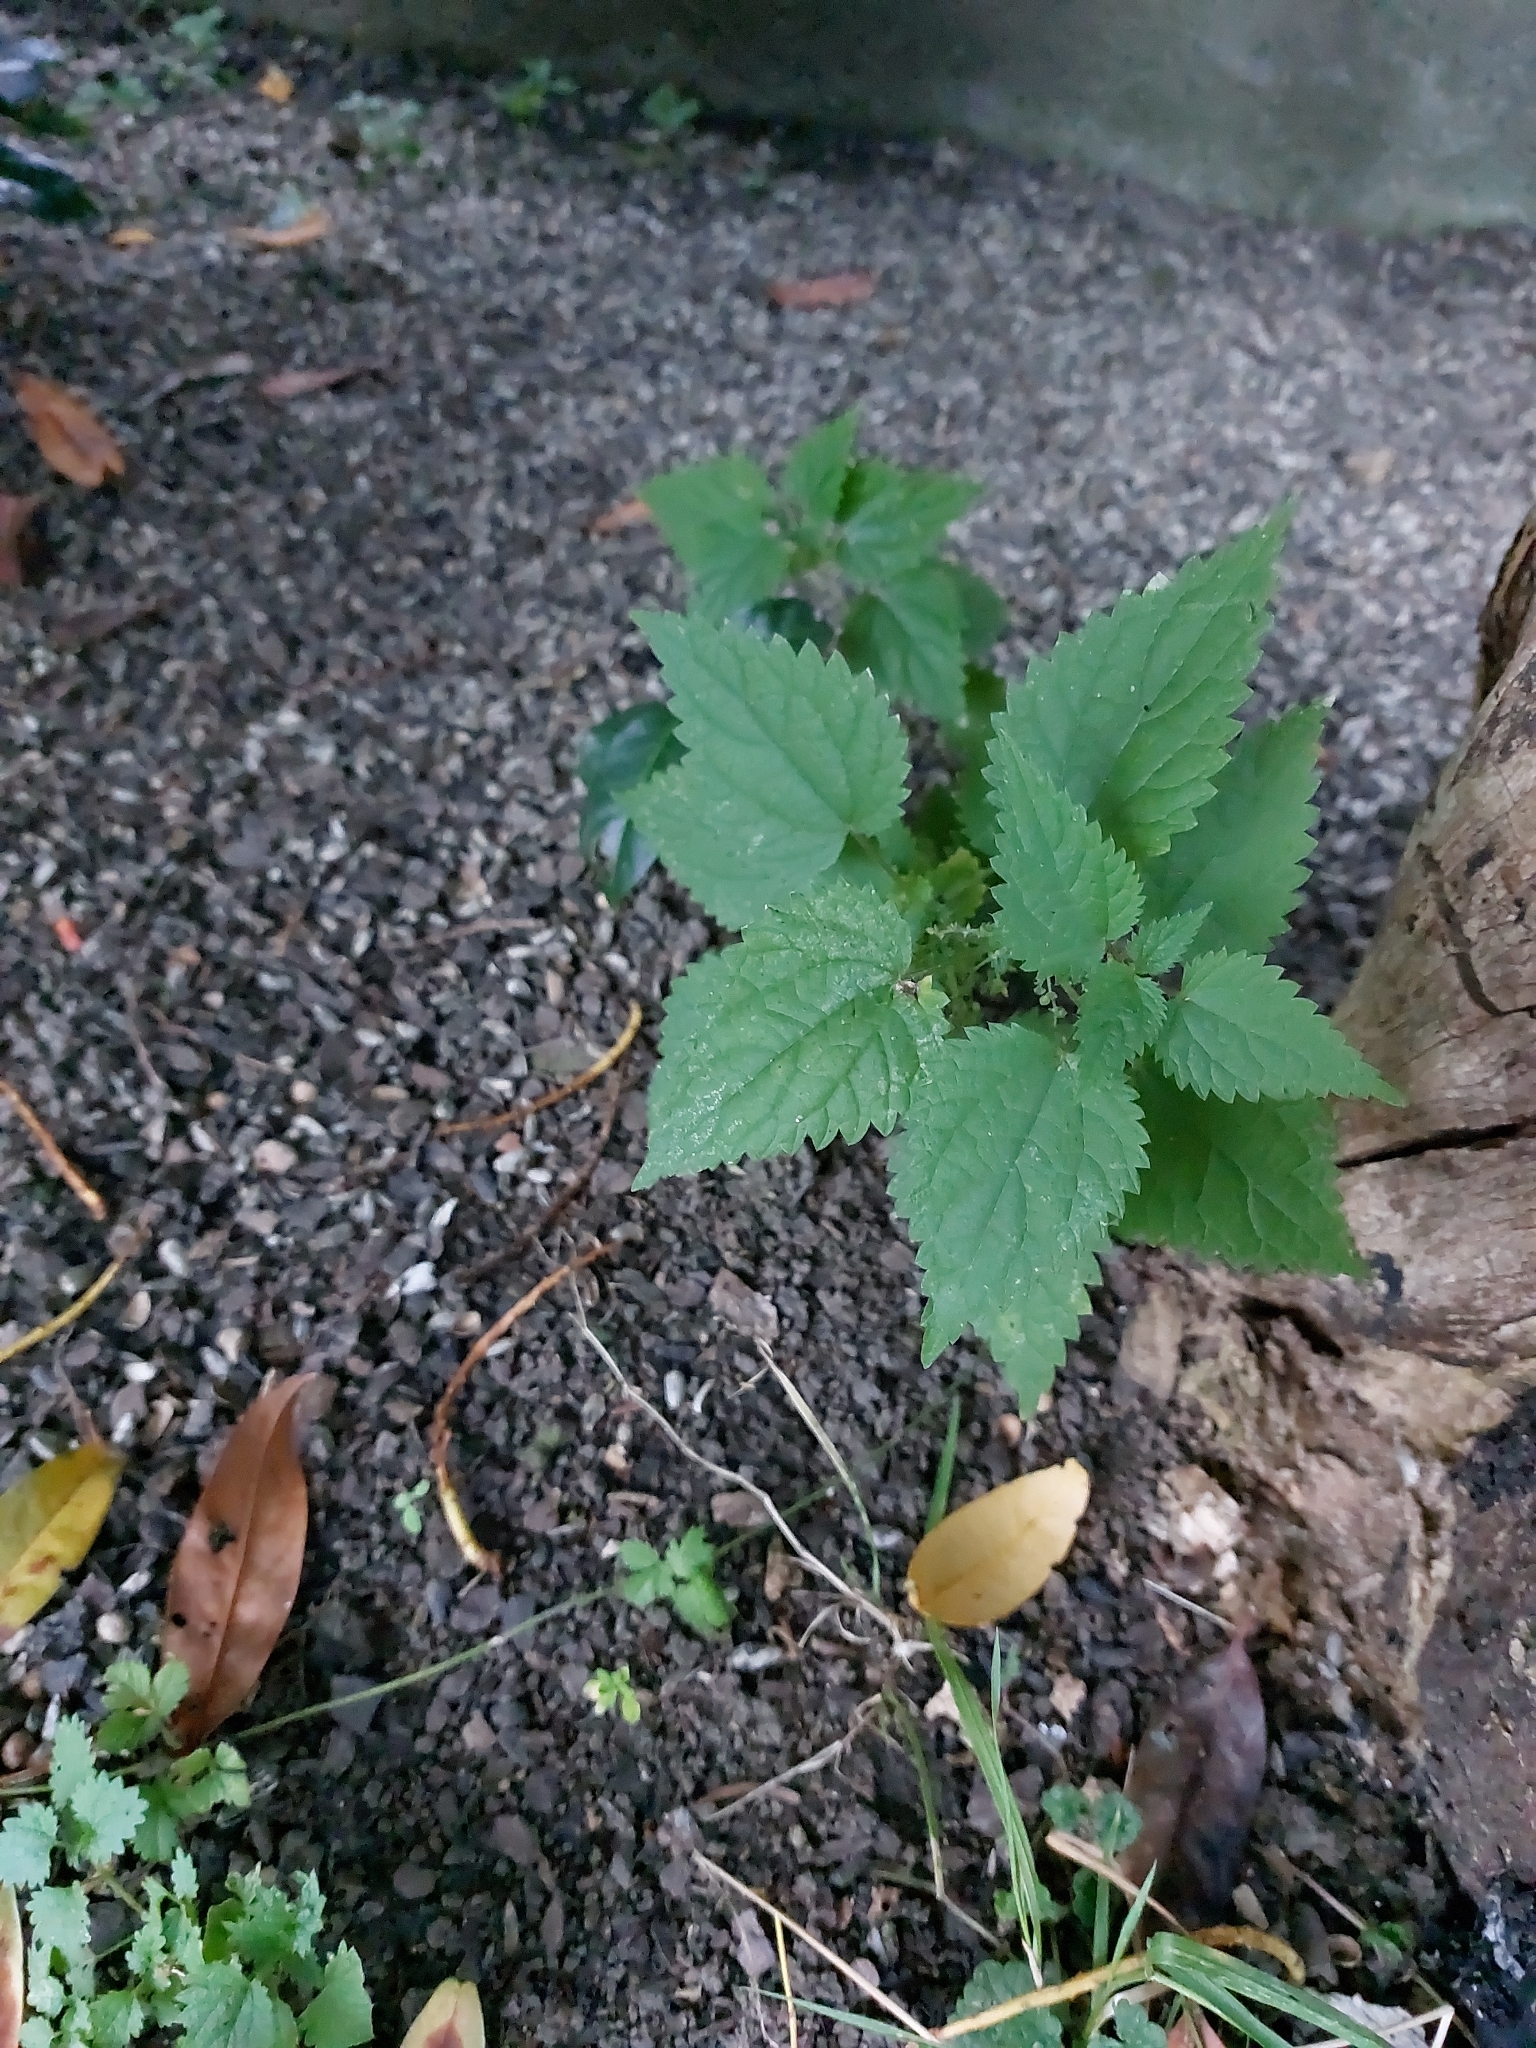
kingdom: Plantae
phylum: Tracheophyta
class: Magnoliopsida
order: Rosales
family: Urticaceae
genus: Urtica
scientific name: Urtica dioica
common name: Common nettle
